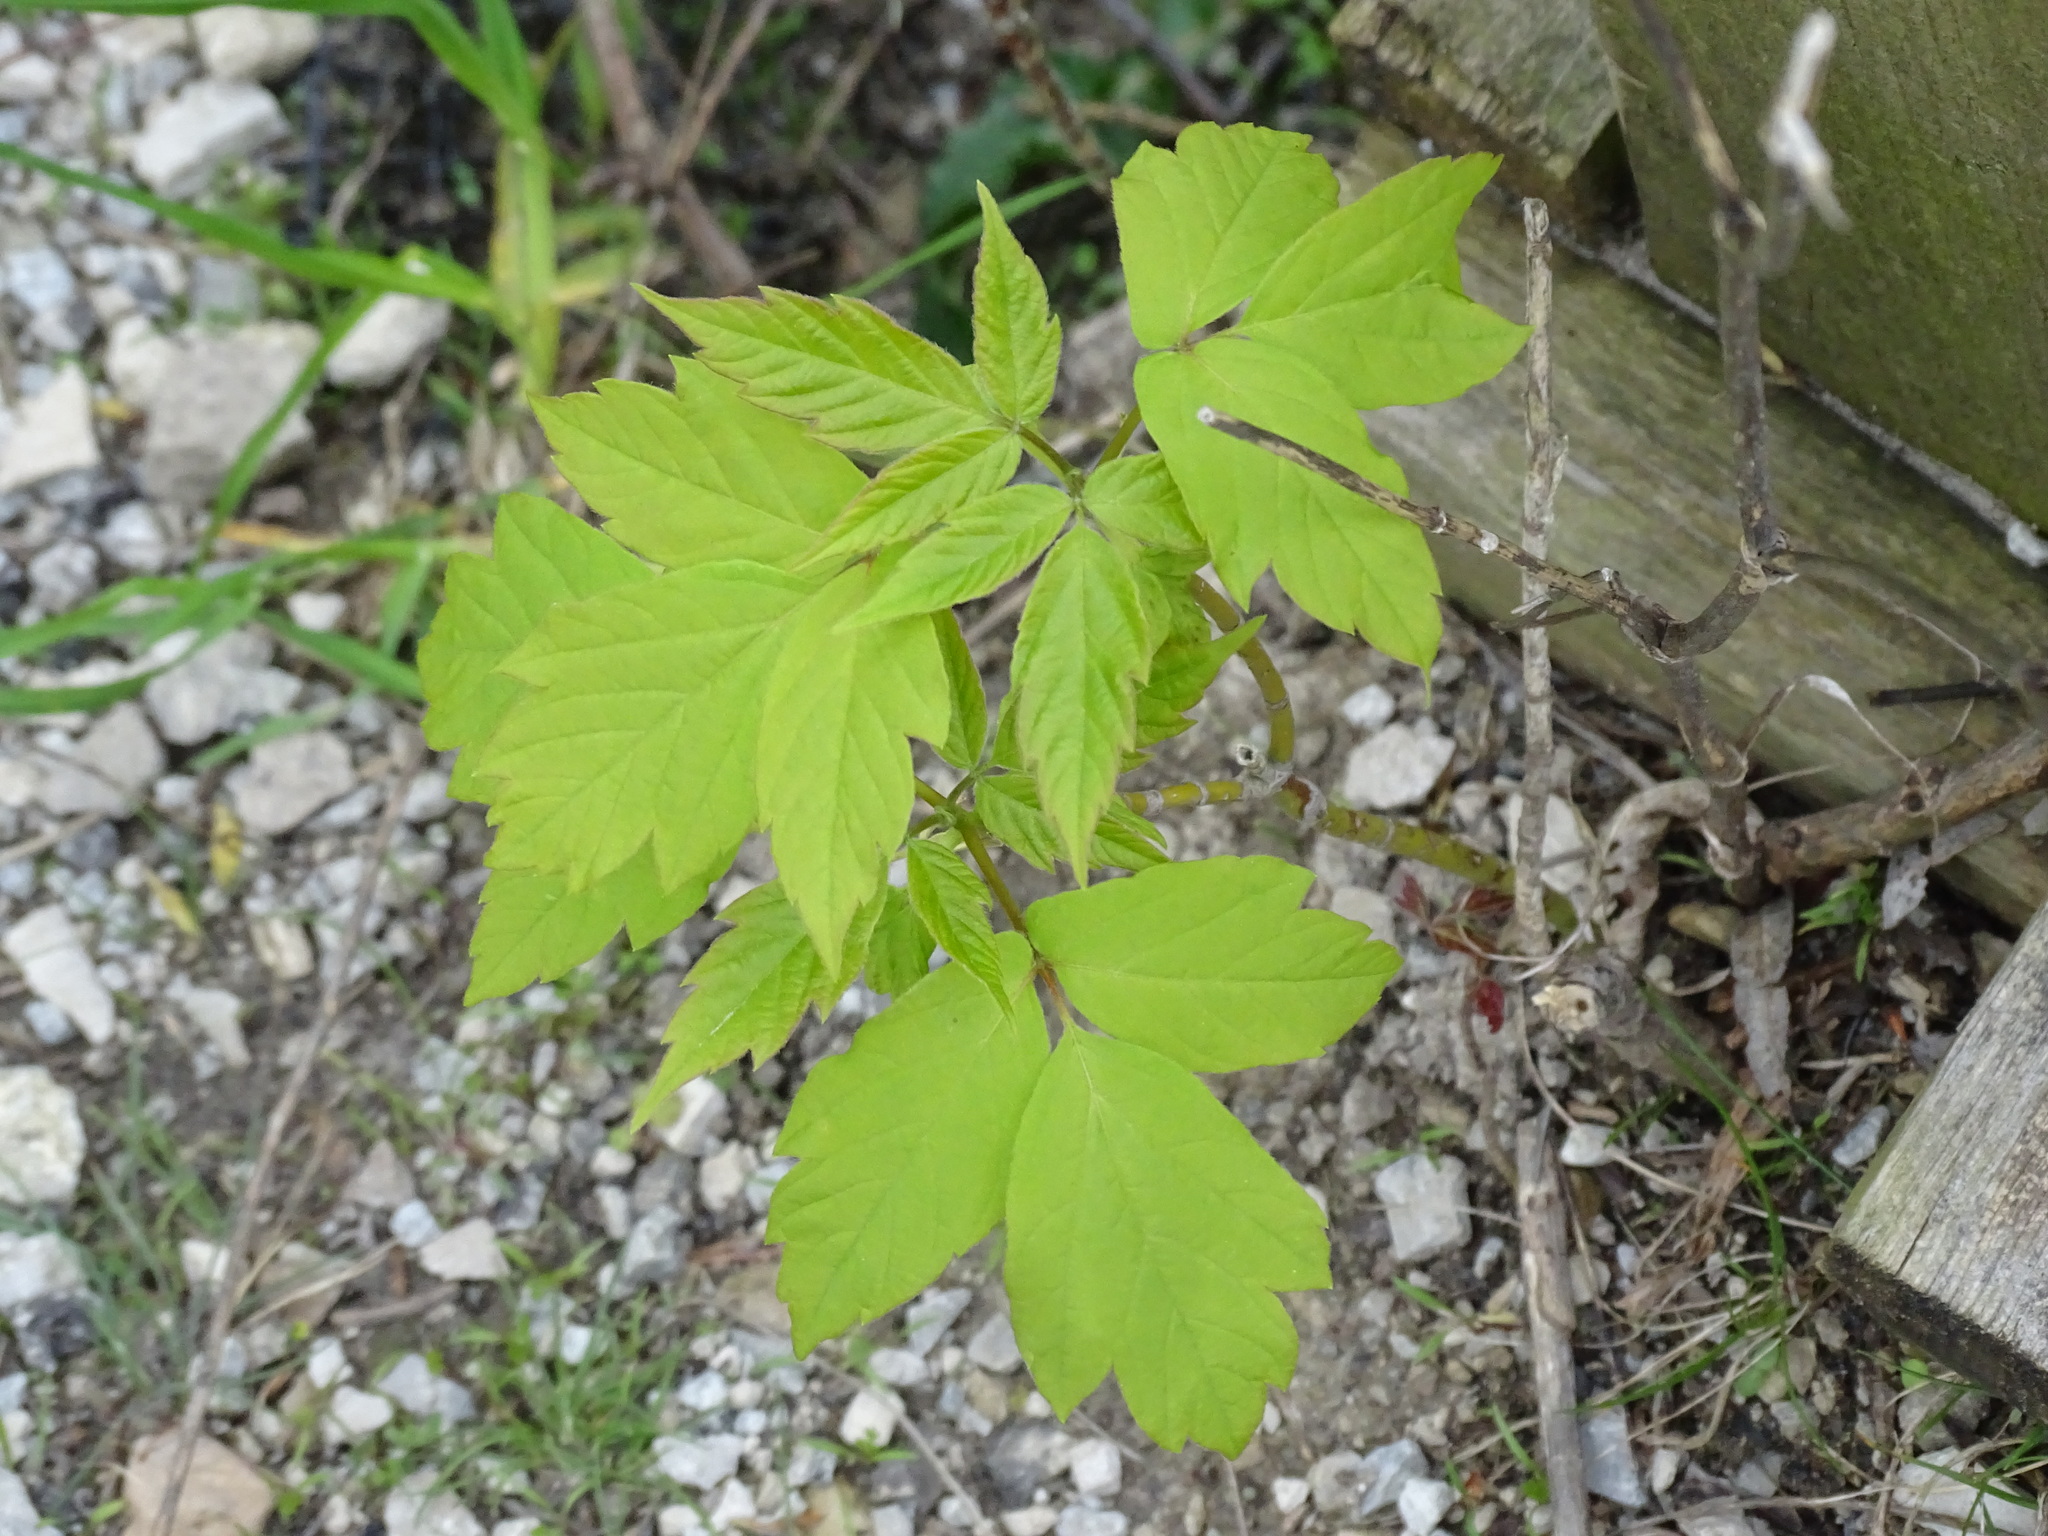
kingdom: Plantae
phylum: Tracheophyta
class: Magnoliopsida
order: Sapindales
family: Sapindaceae
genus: Acer
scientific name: Acer negundo
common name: Ashleaf maple
